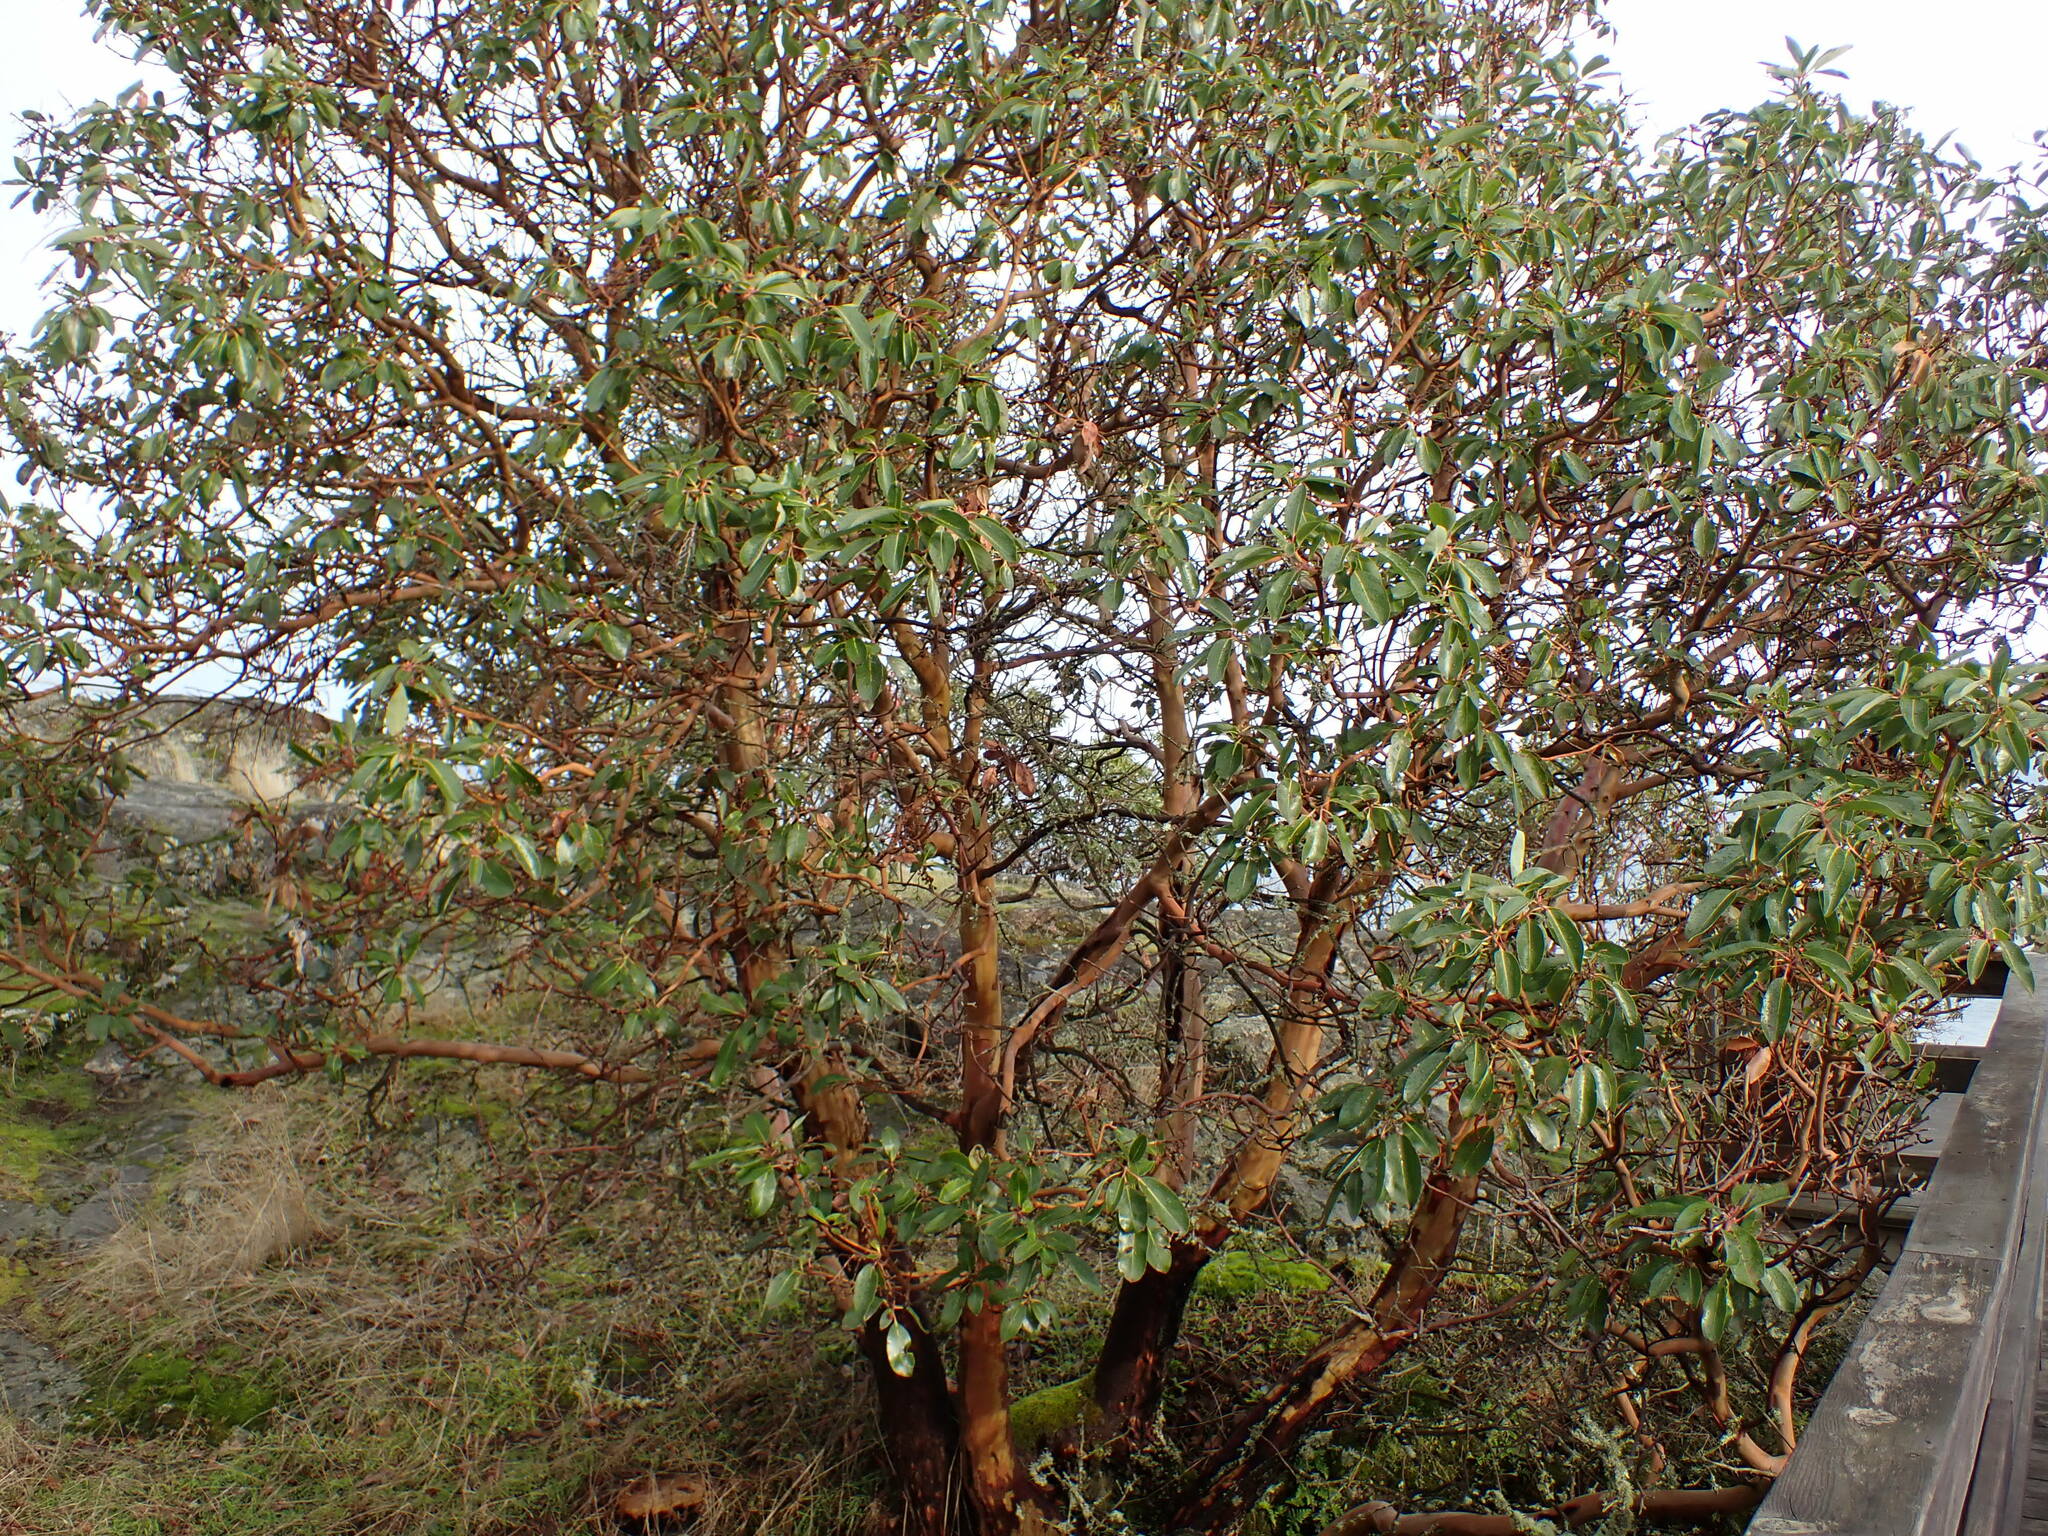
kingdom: Plantae
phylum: Tracheophyta
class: Magnoliopsida
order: Ericales
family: Ericaceae
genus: Arbutus
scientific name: Arbutus menziesii
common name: Pacific madrone
